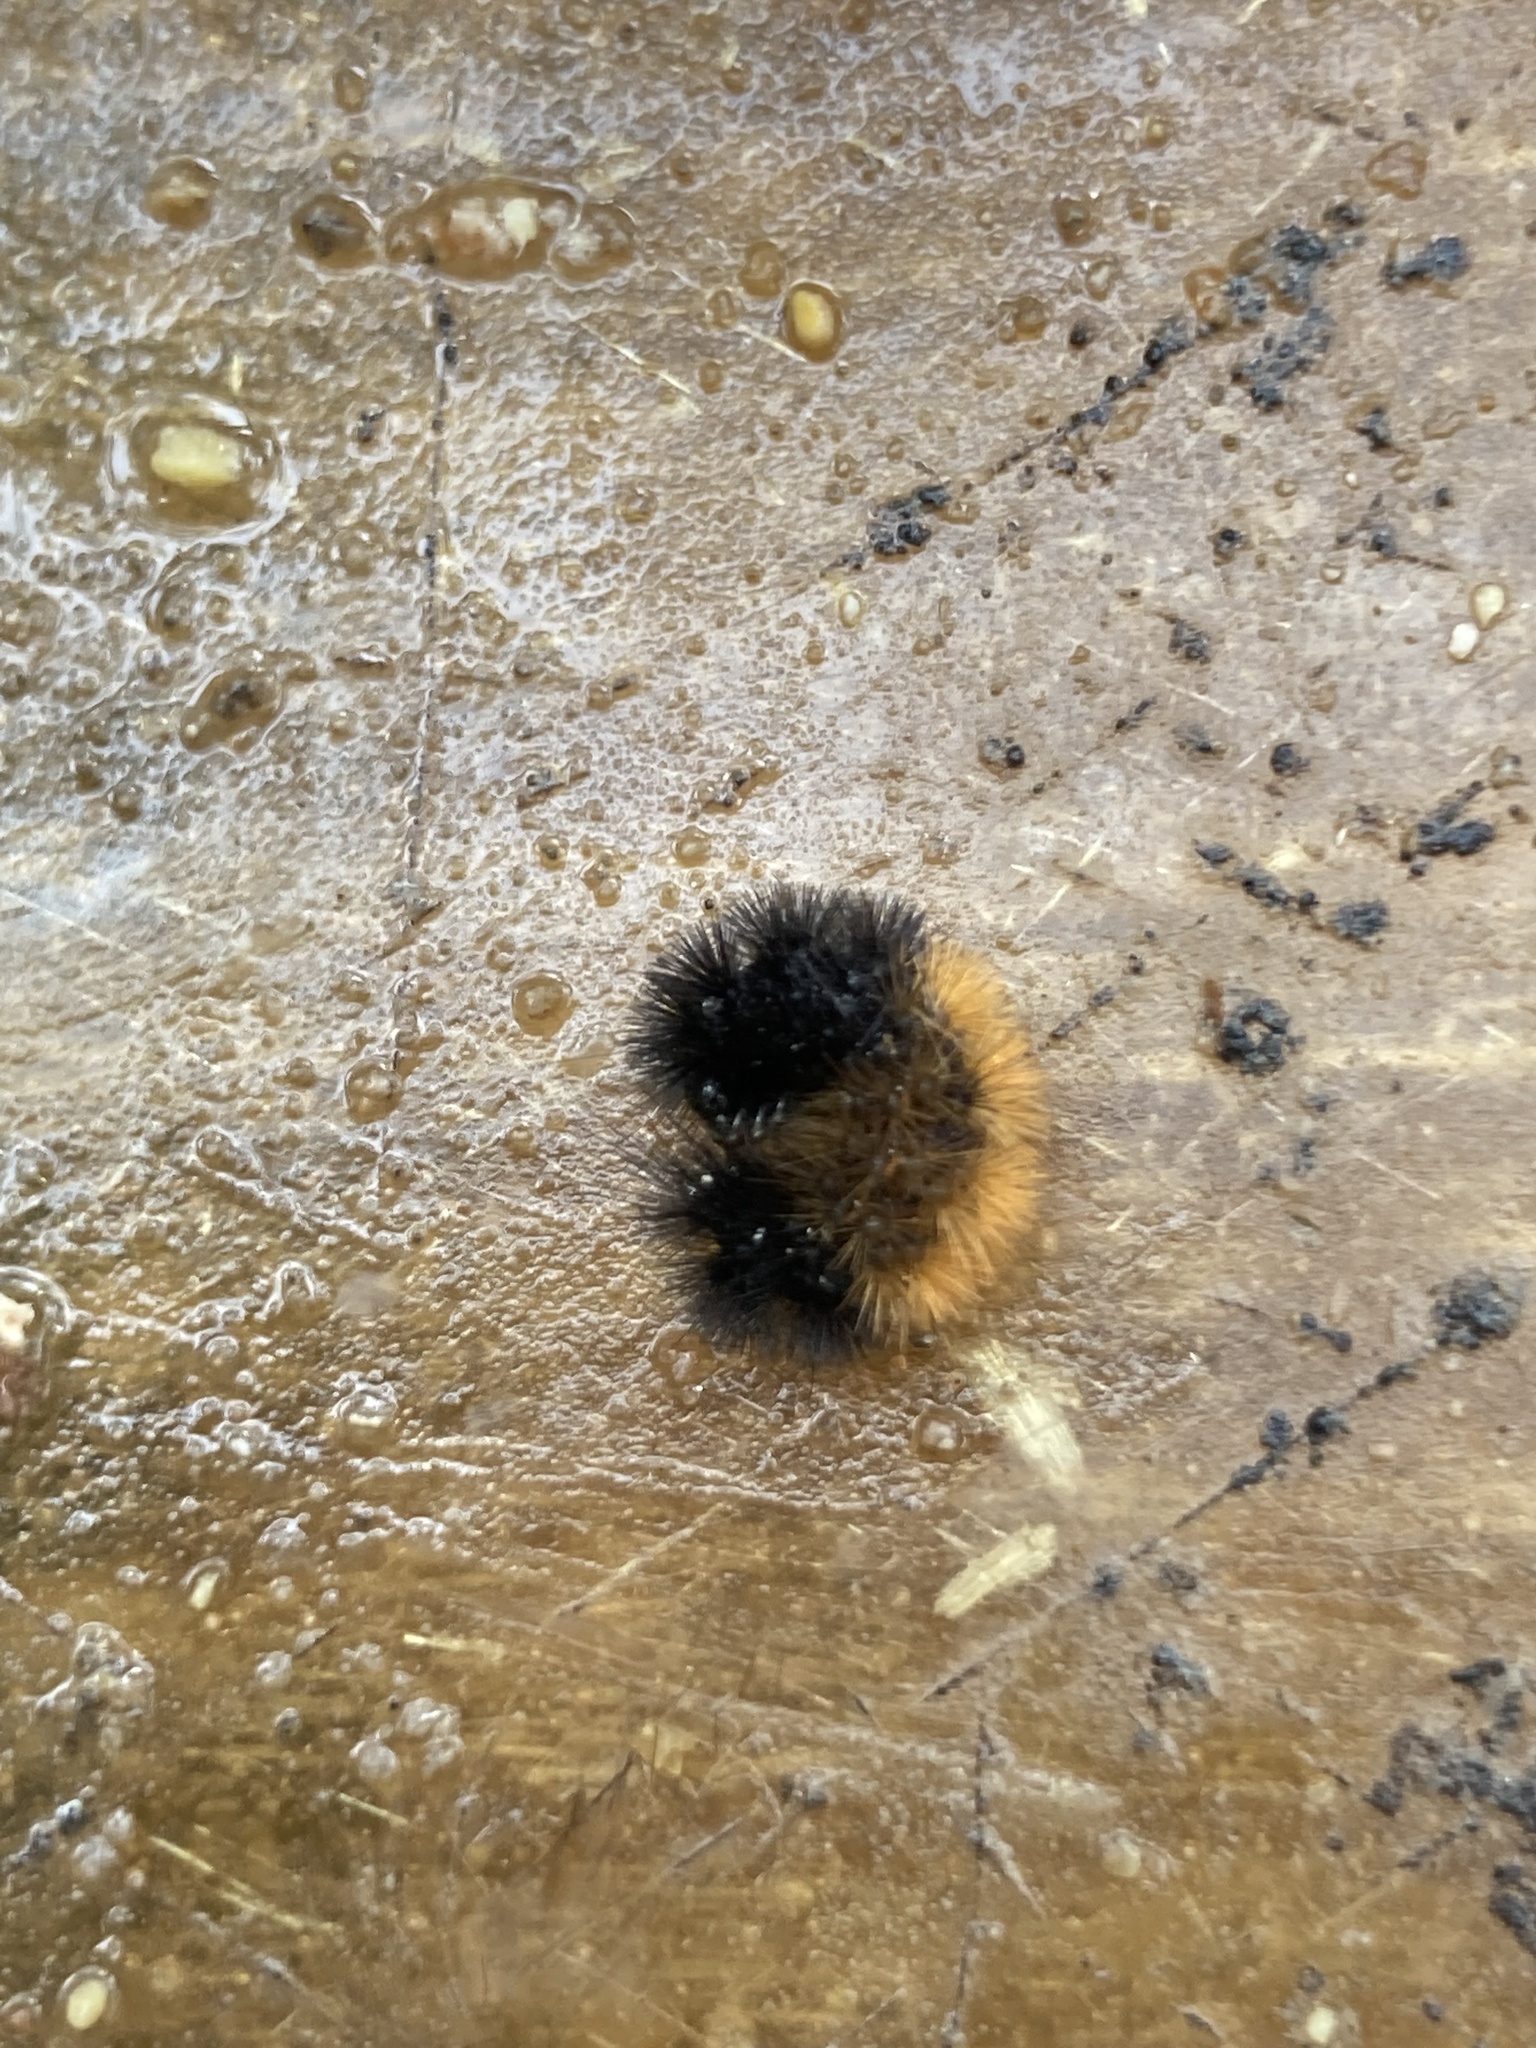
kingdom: Animalia
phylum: Arthropoda
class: Insecta
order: Lepidoptera
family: Erebidae
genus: Pyrrharctia
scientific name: Pyrrharctia isabella
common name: Isabella tiger moth
